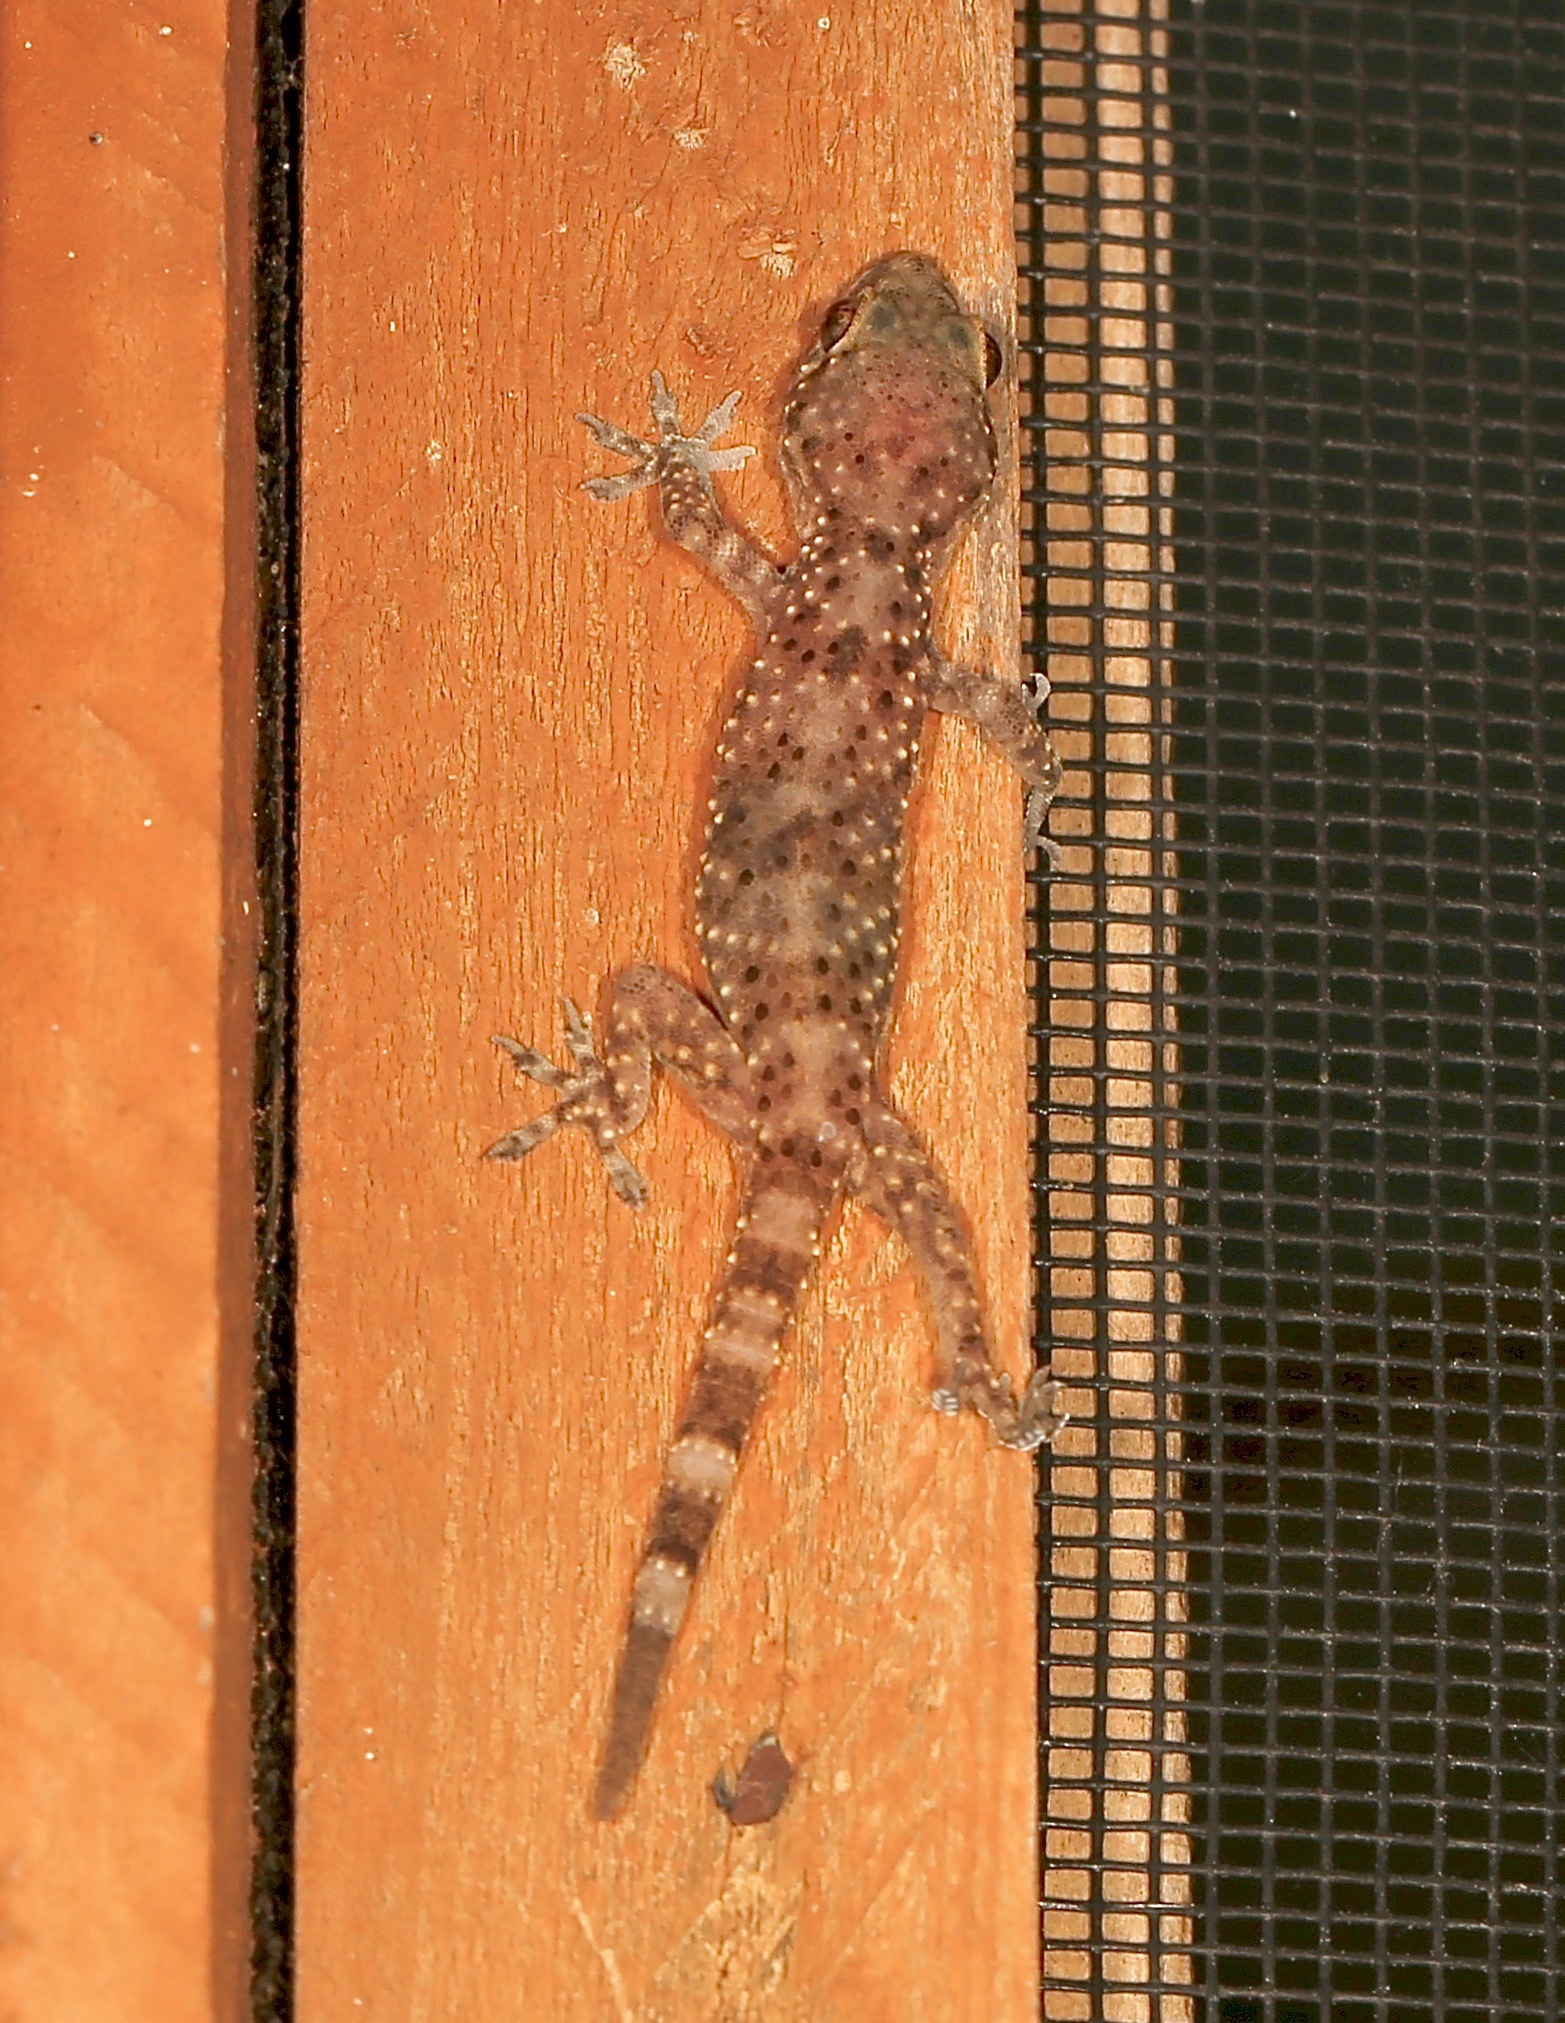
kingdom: Animalia
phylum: Chordata
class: Squamata
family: Gekkonidae
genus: Hemidactylus
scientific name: Hemidactylus turcicus
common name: Turkish gecko
